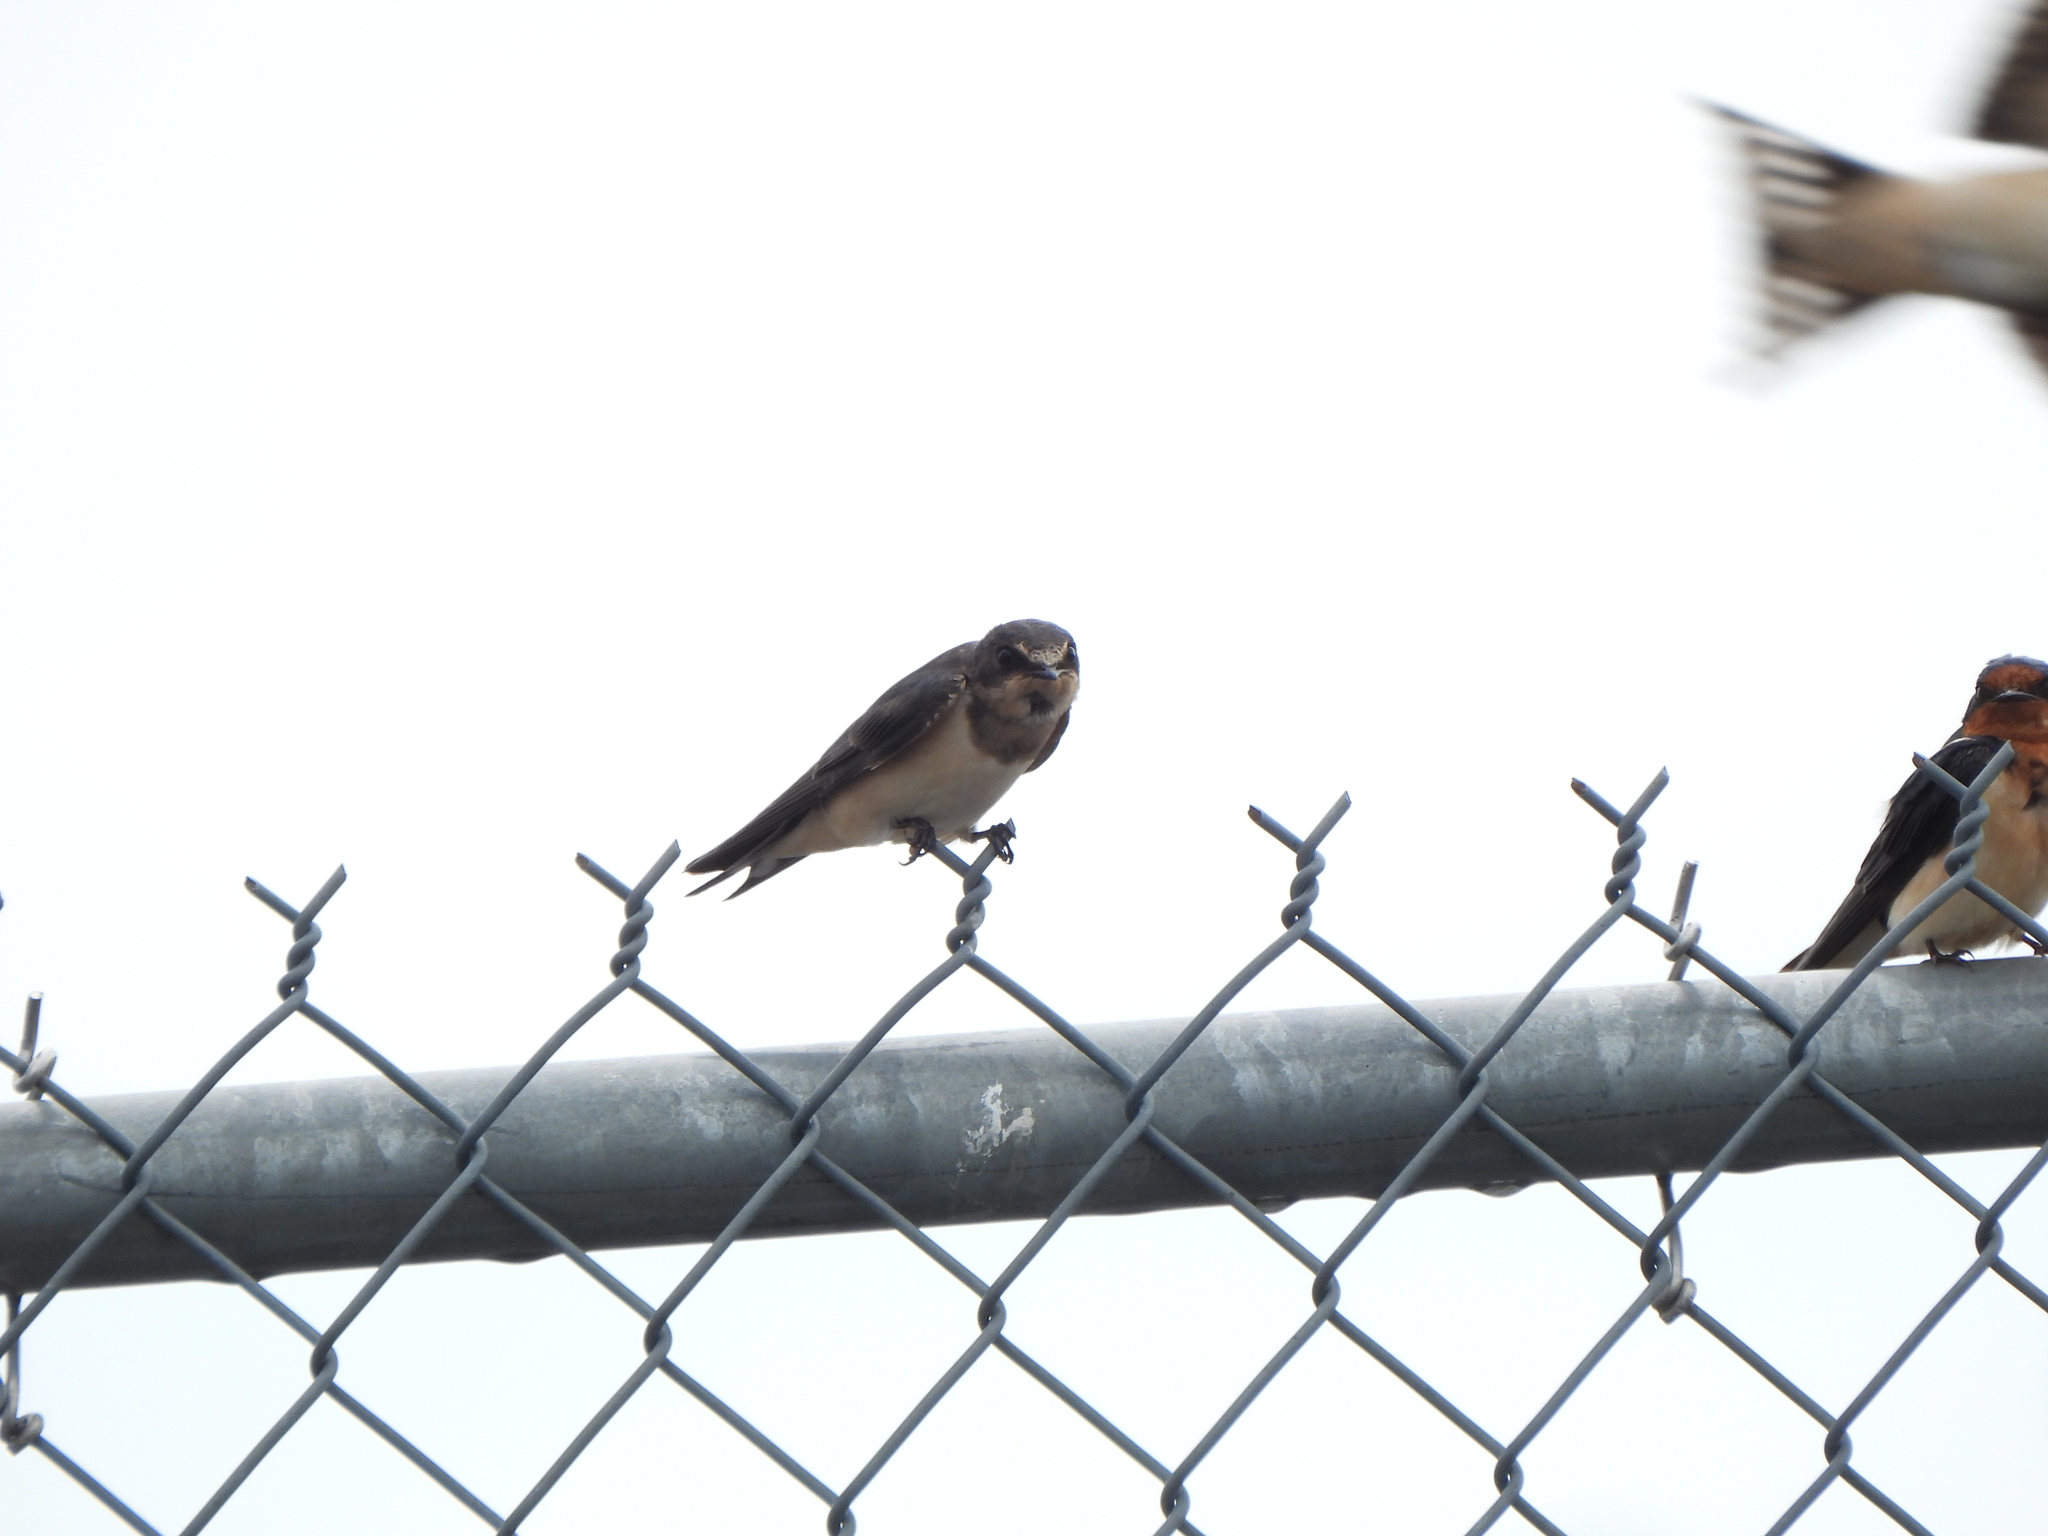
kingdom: Animalia
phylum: Chordata
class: Aves
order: Passeriformes
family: Hirundinidae
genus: Hirundo
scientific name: Hirundo rustica
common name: Barn swallow
